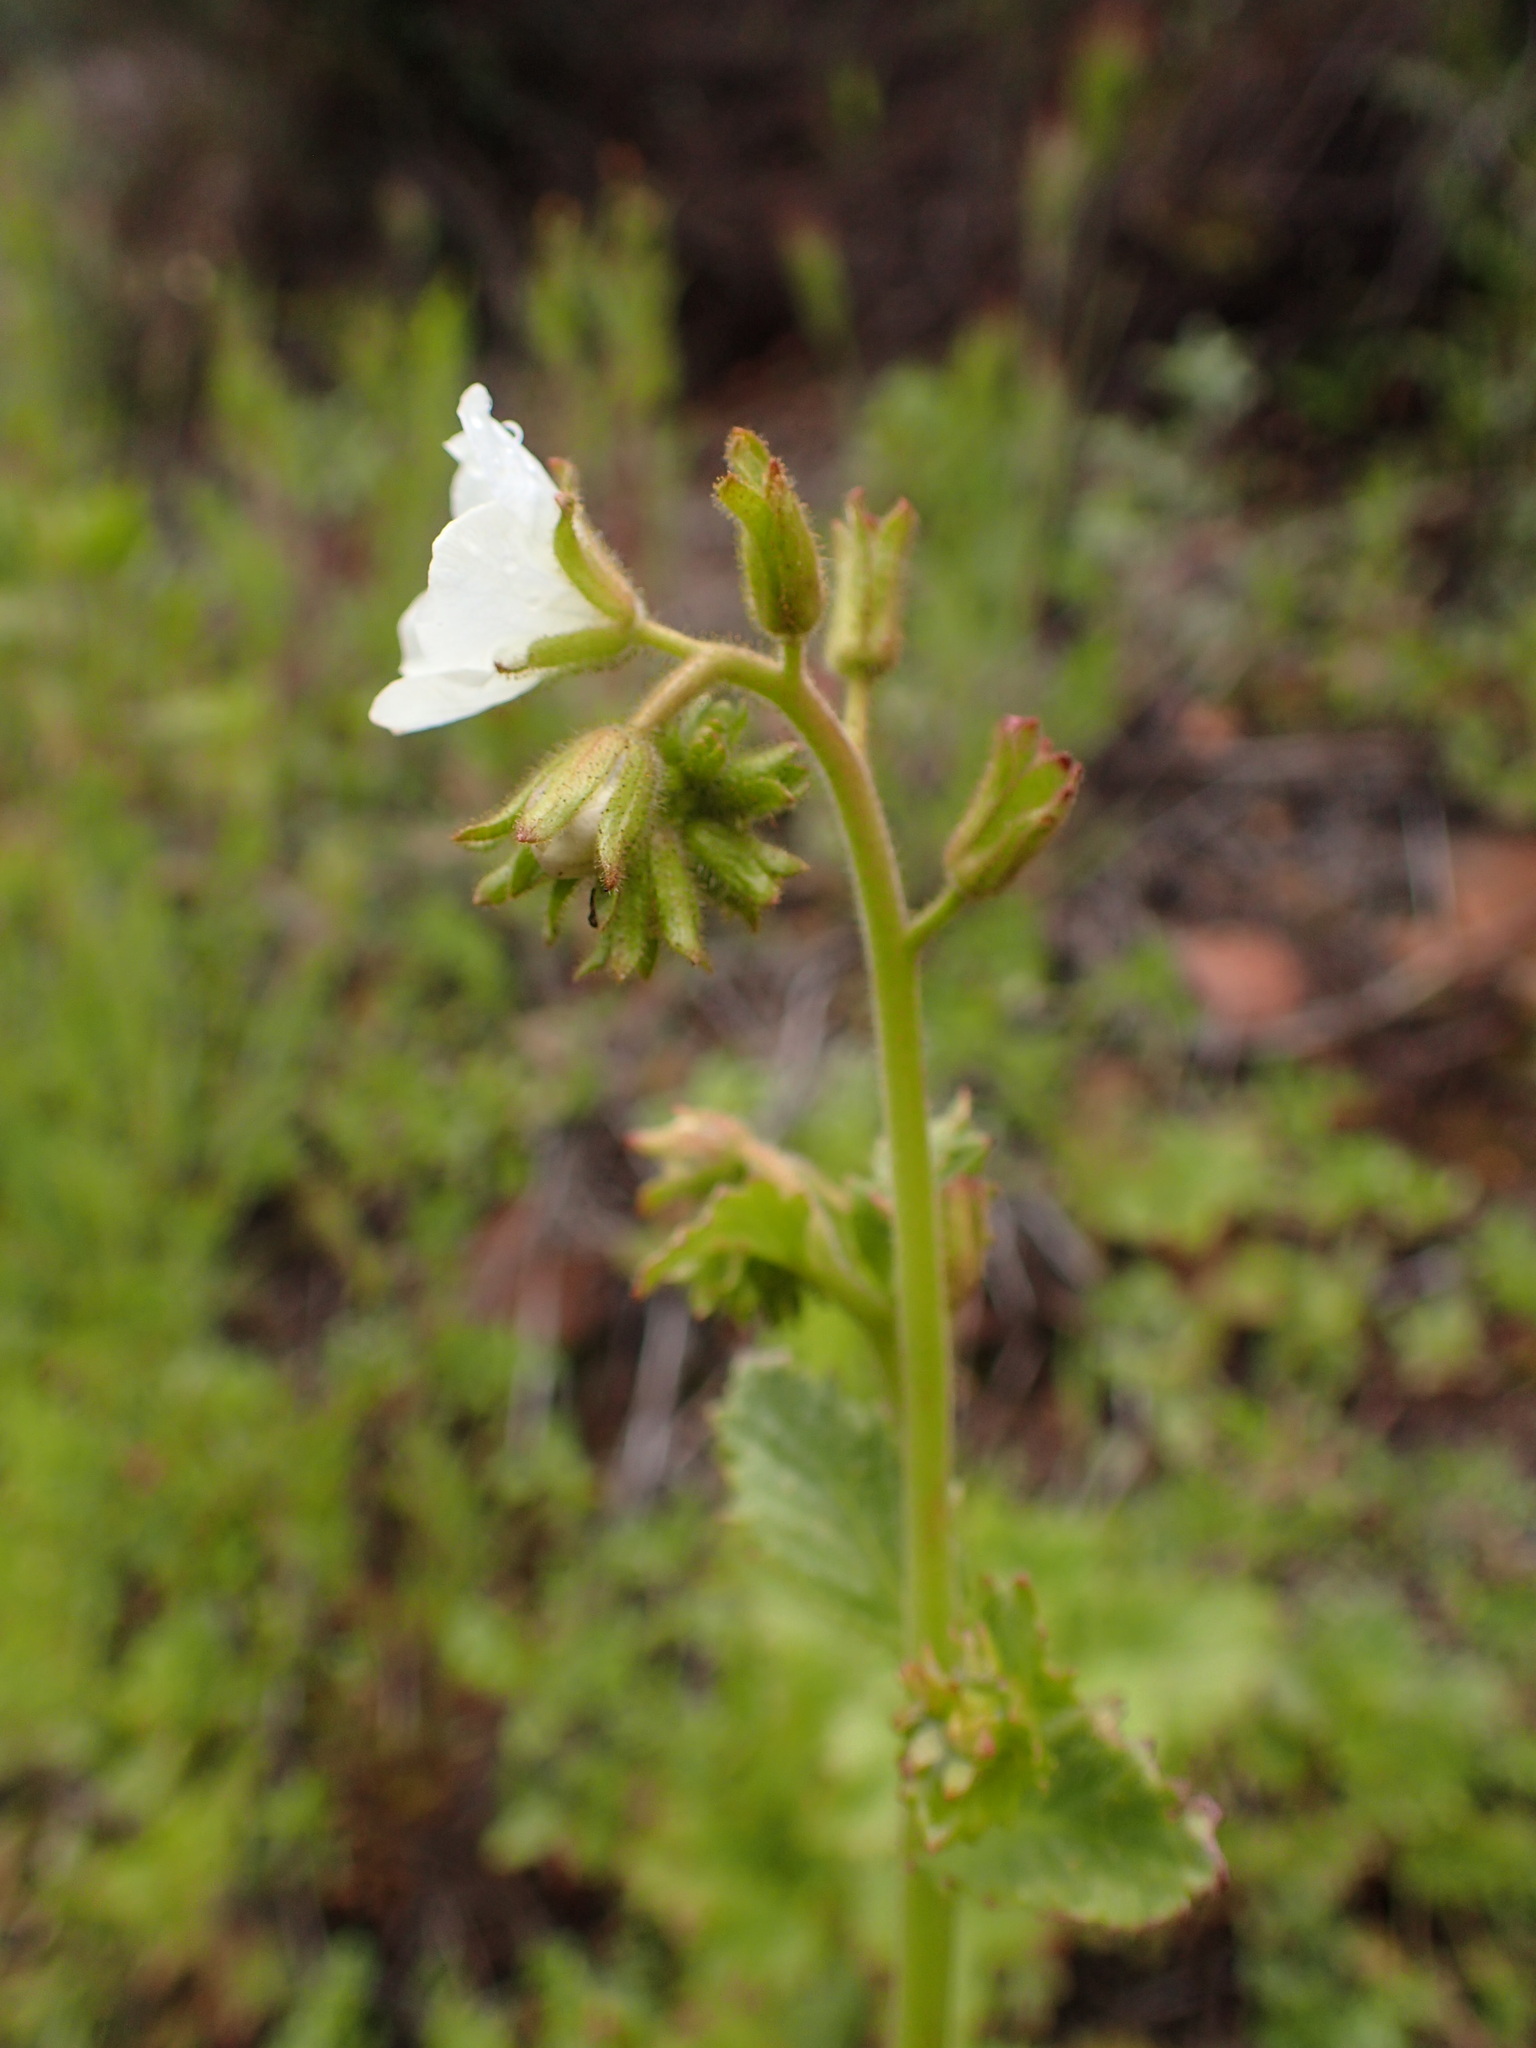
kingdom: Plantae
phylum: Tracheophyta
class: Magnoliopsida
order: Boraginales
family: Hydrophyllaceae
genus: Phacelia
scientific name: Phacelia viscida
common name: Sticky phacelia
